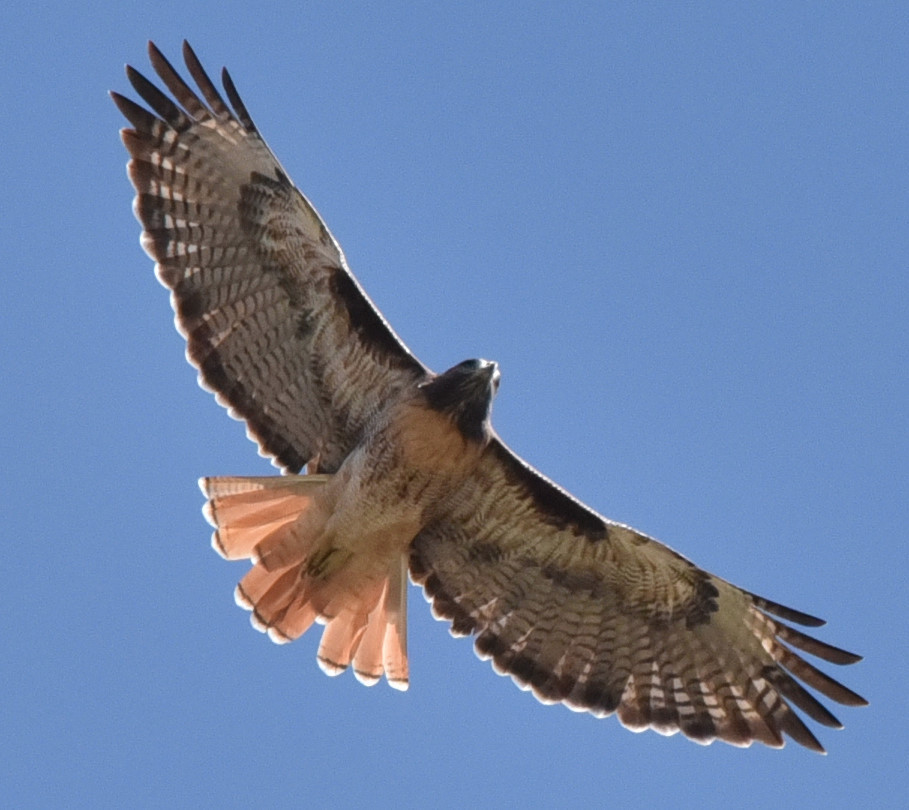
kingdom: Animalia
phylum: Chordata
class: Aves
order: Accipitriformes
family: Accipitridae
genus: Buteo
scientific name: Buteo jamaicensis
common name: Red-tailed hawk
